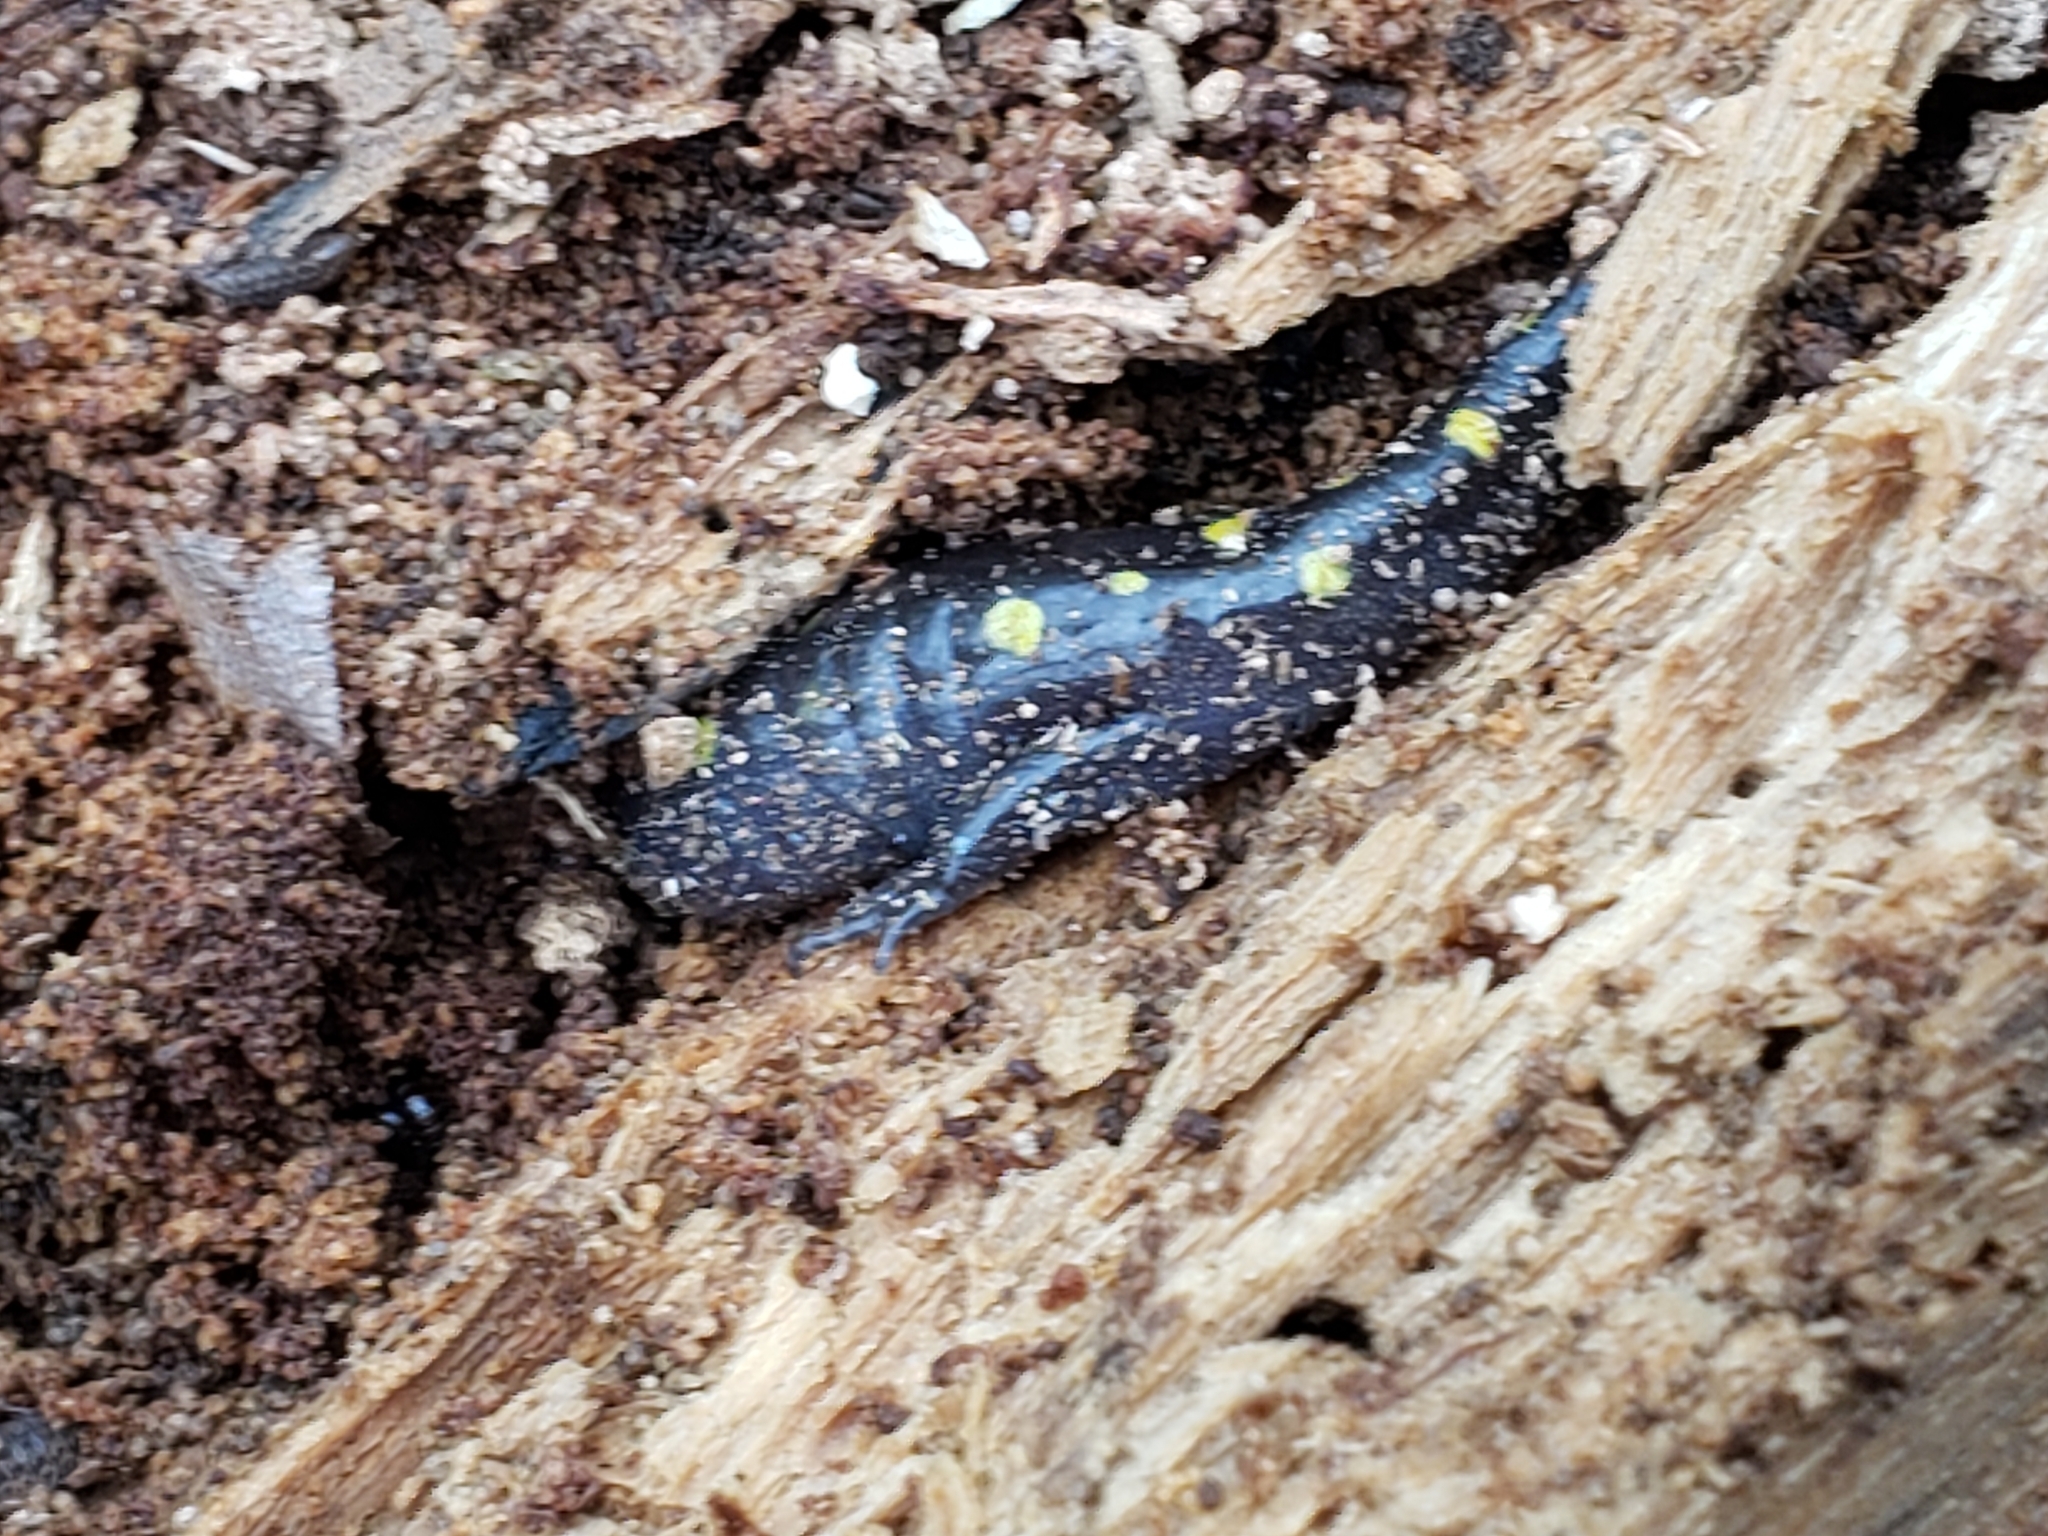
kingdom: Animalia
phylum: Chordata
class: Amphibia
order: Caudata
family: Ambystomatidae
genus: Ambystoma
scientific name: Ambystoma opacum
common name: Marbled salamander
